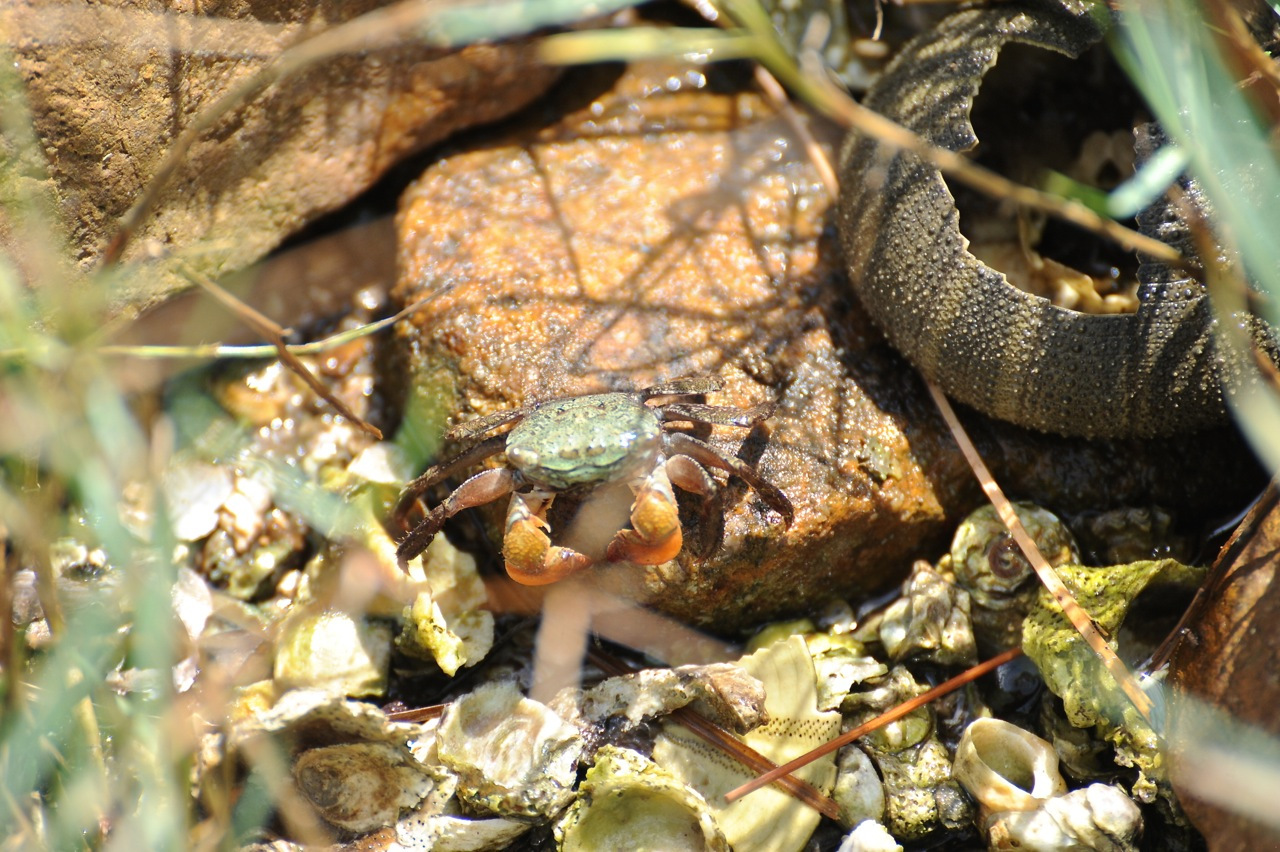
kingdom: Animalia
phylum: Arthropoda
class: Malacostraca
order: Decapoda
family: Sesarmidae
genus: Parasesarma
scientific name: Parasesarma bidens
